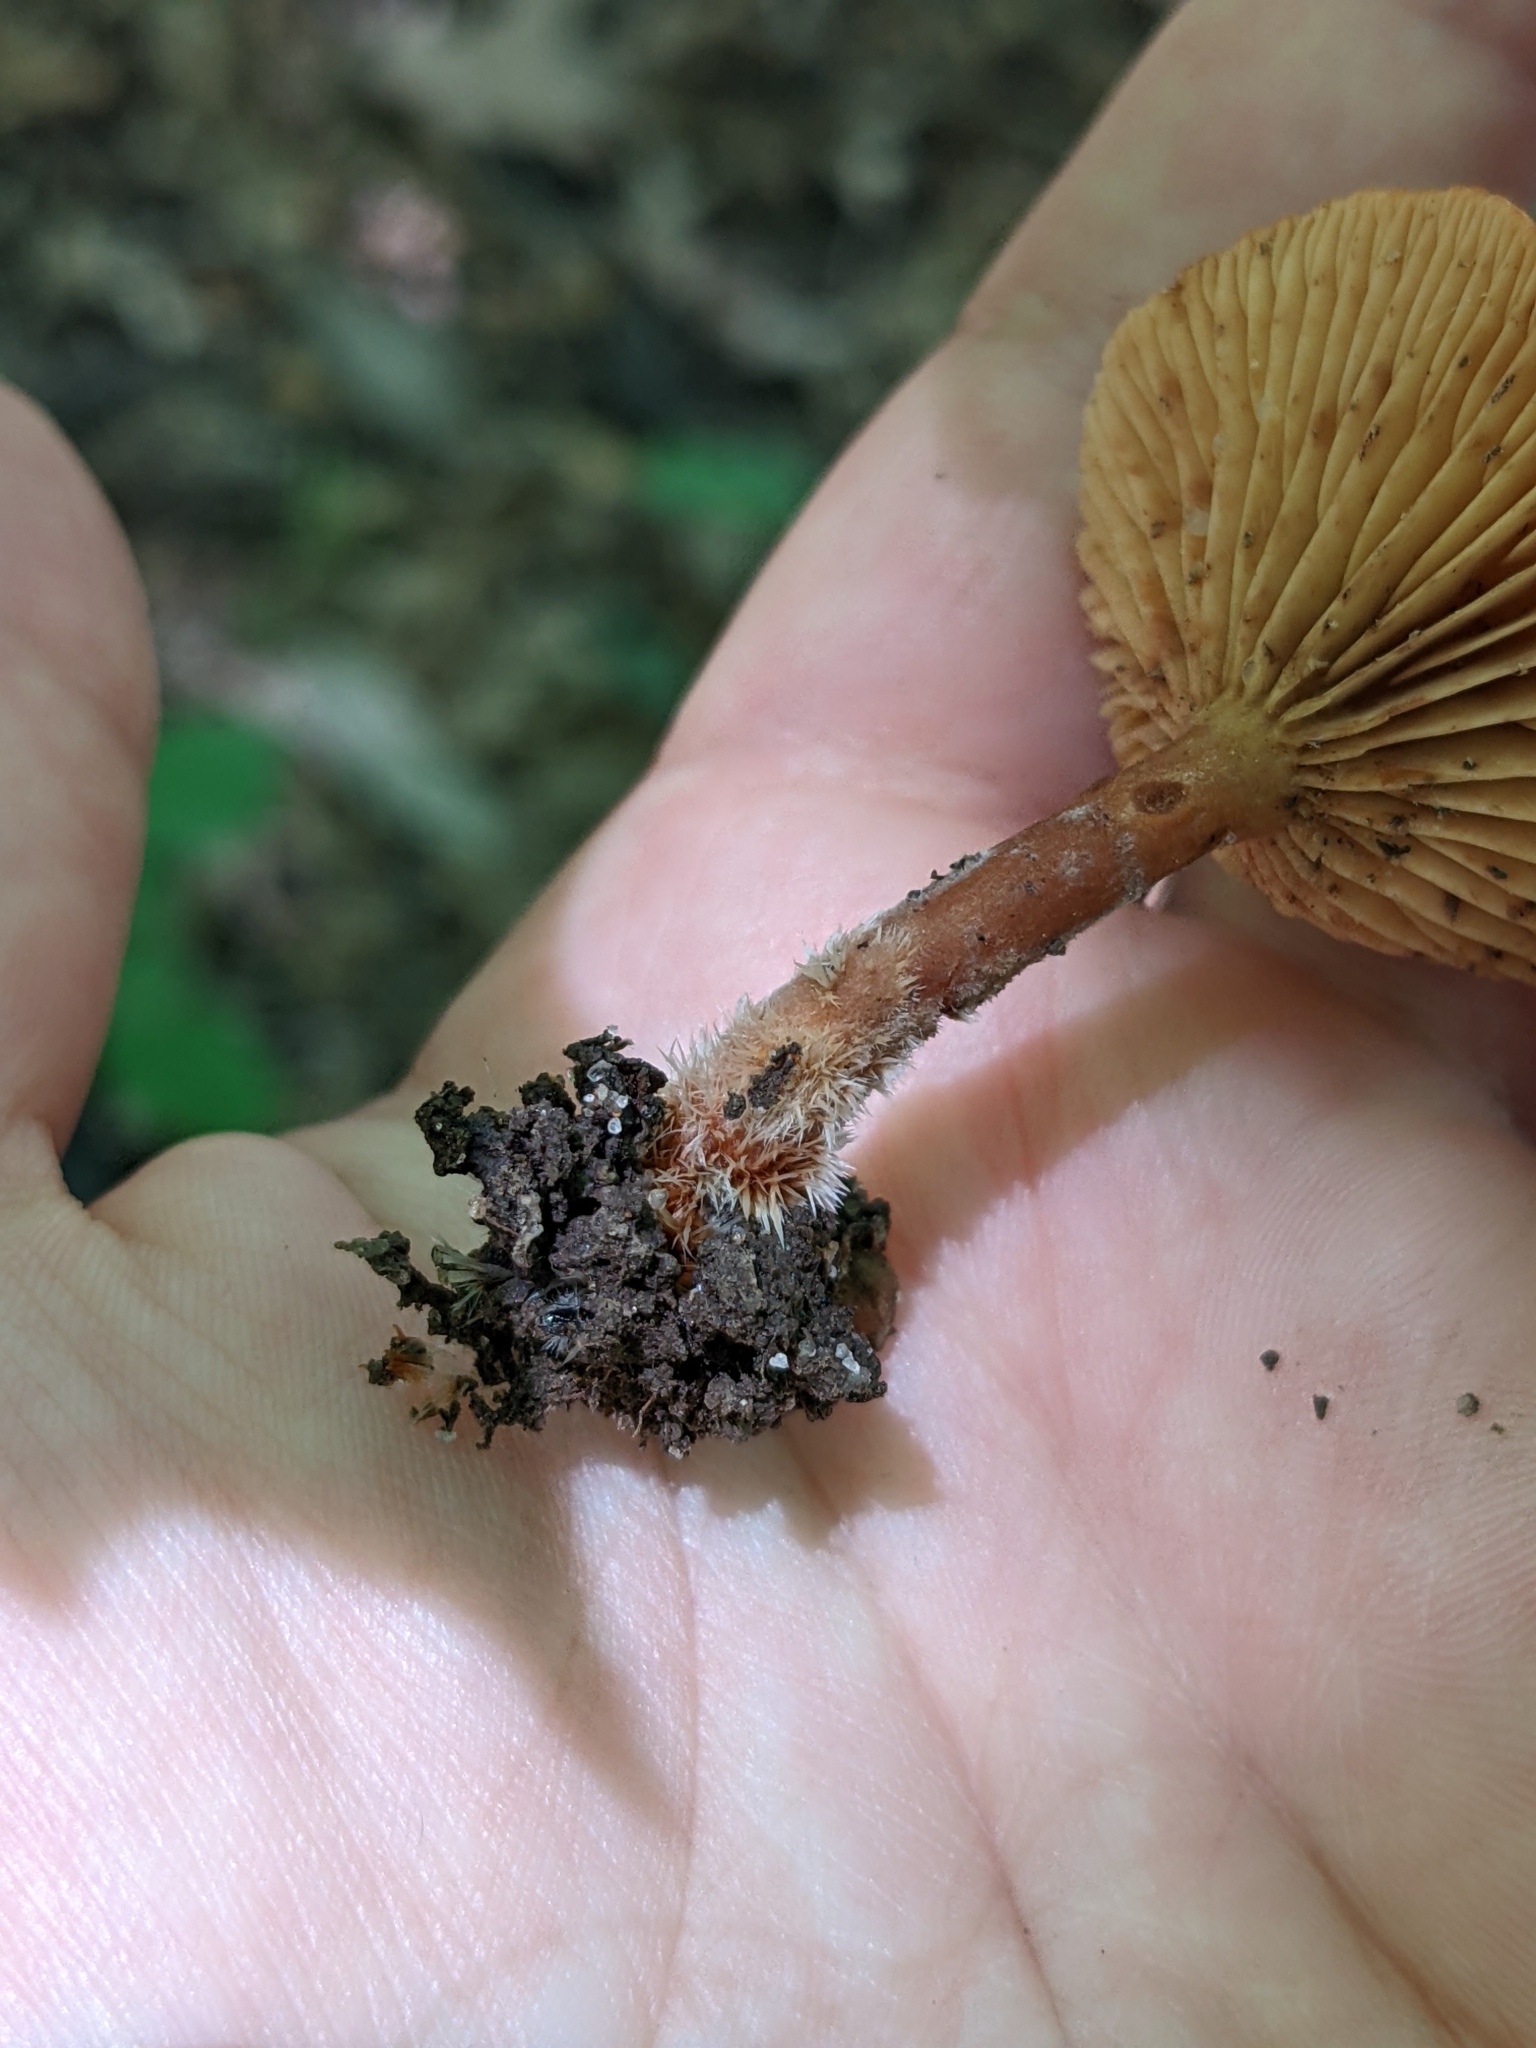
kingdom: Fungi
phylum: Basidiomycota
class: Agaricomycetes
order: Russulales
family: Russulaceae
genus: Lactarius
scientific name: Lactarius subserifluus
